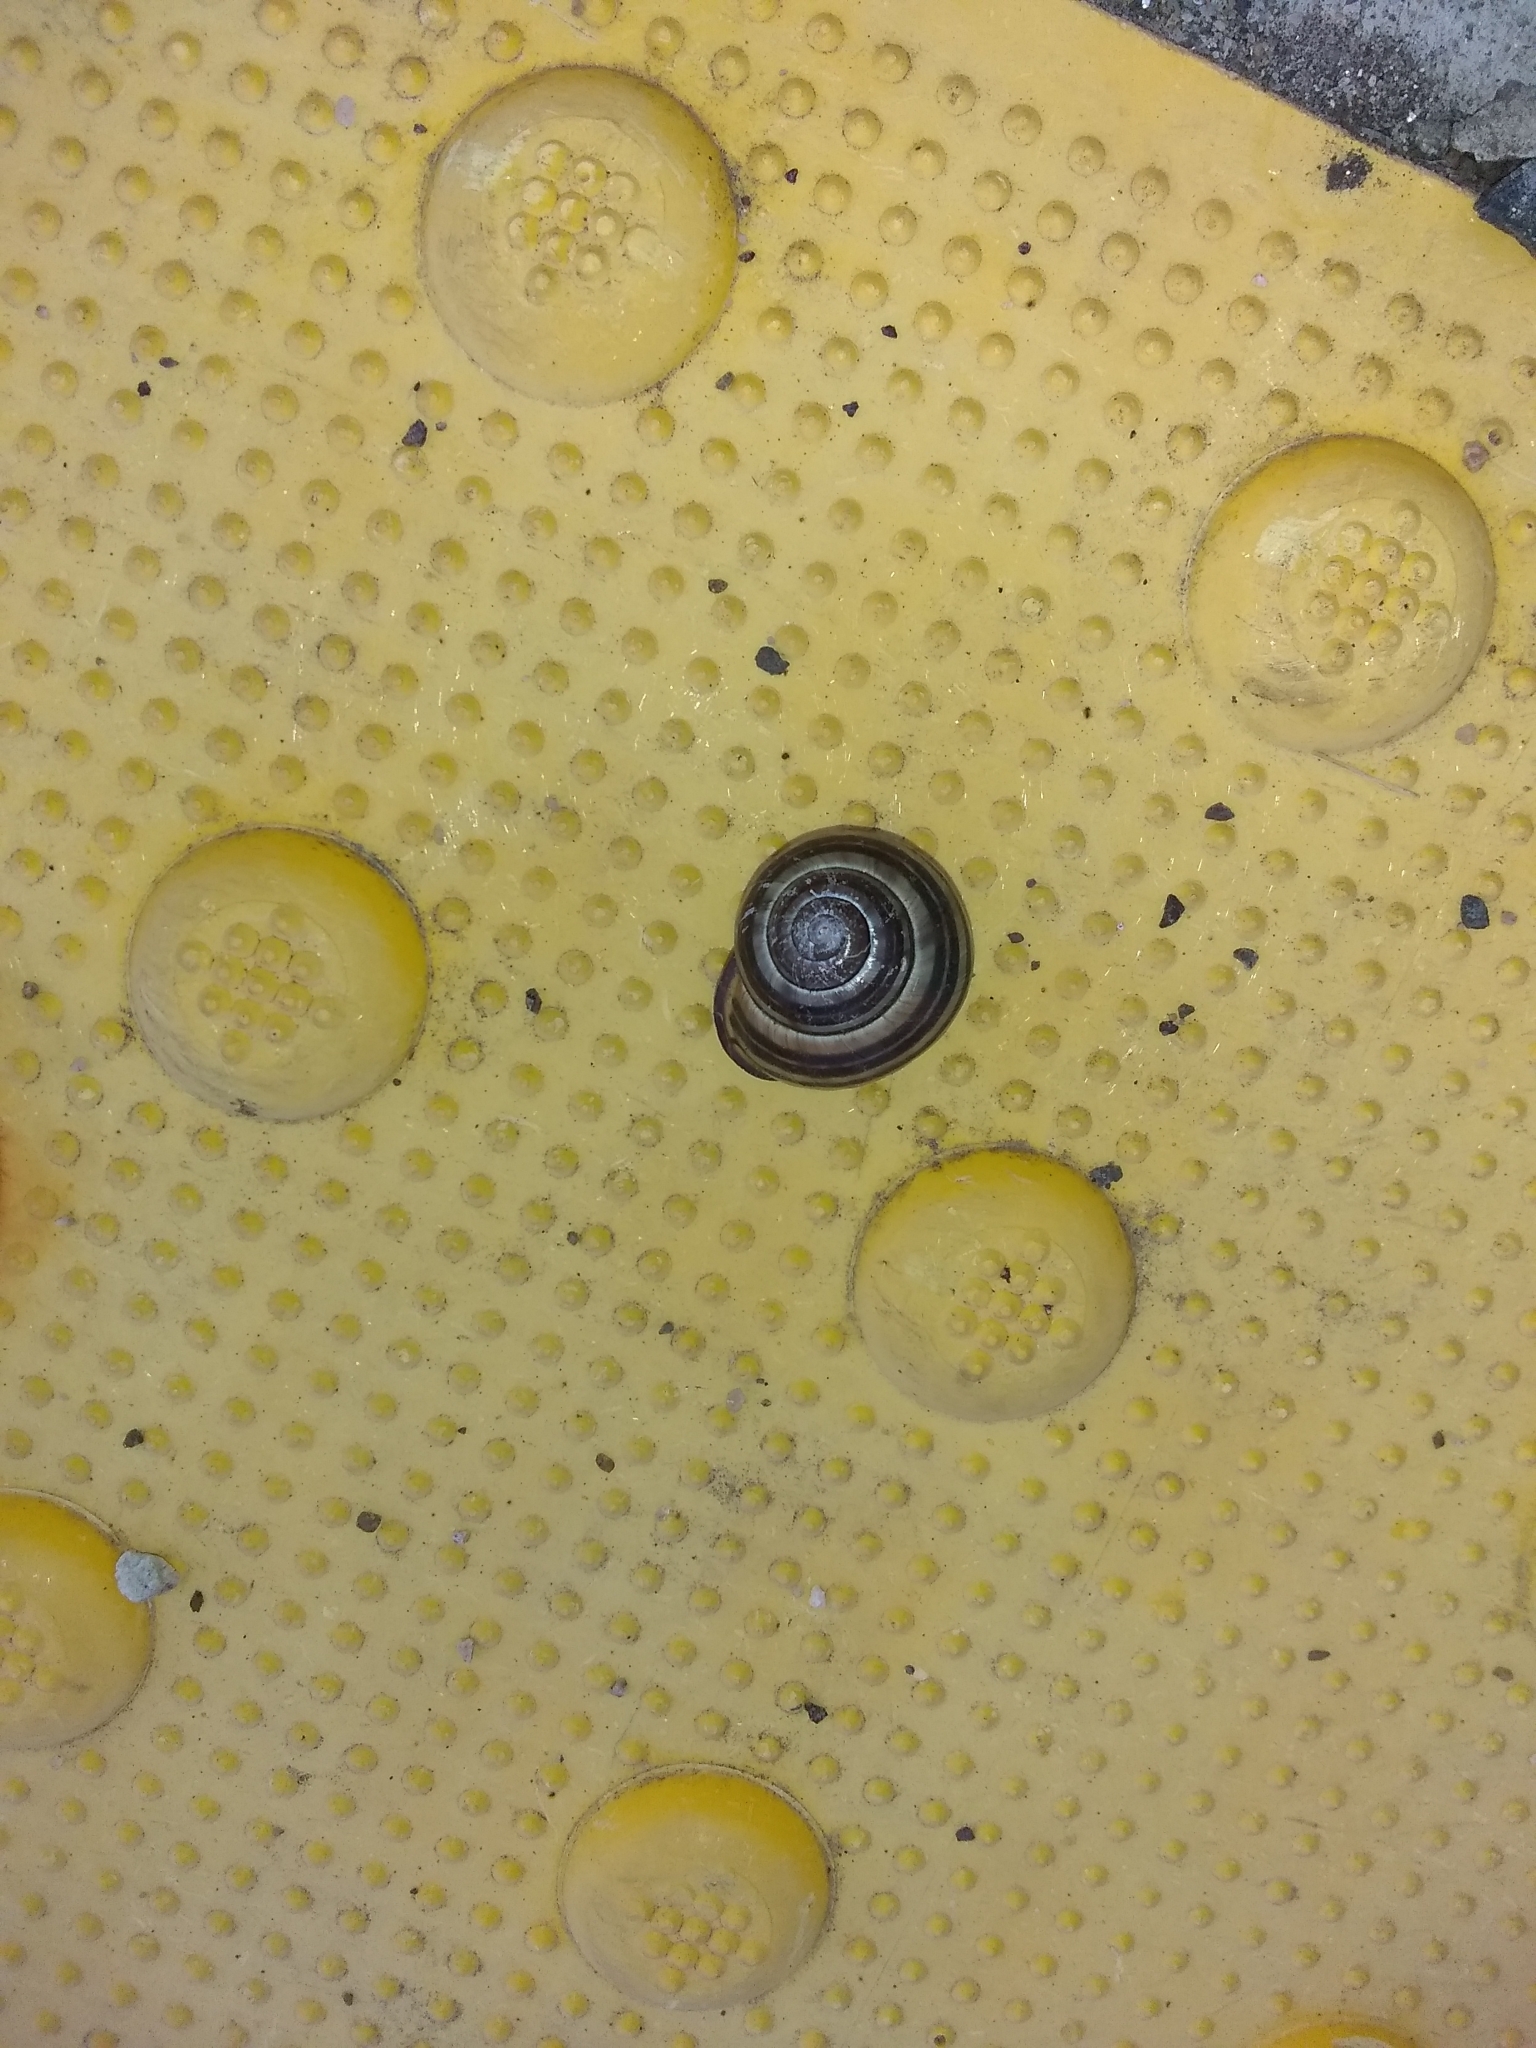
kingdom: Animalia
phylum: Mollusca
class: Gastropoda
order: Stylommatophora
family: Helicidae
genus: Cepaea
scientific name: Cepaea nemoralis
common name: Grovesnail
